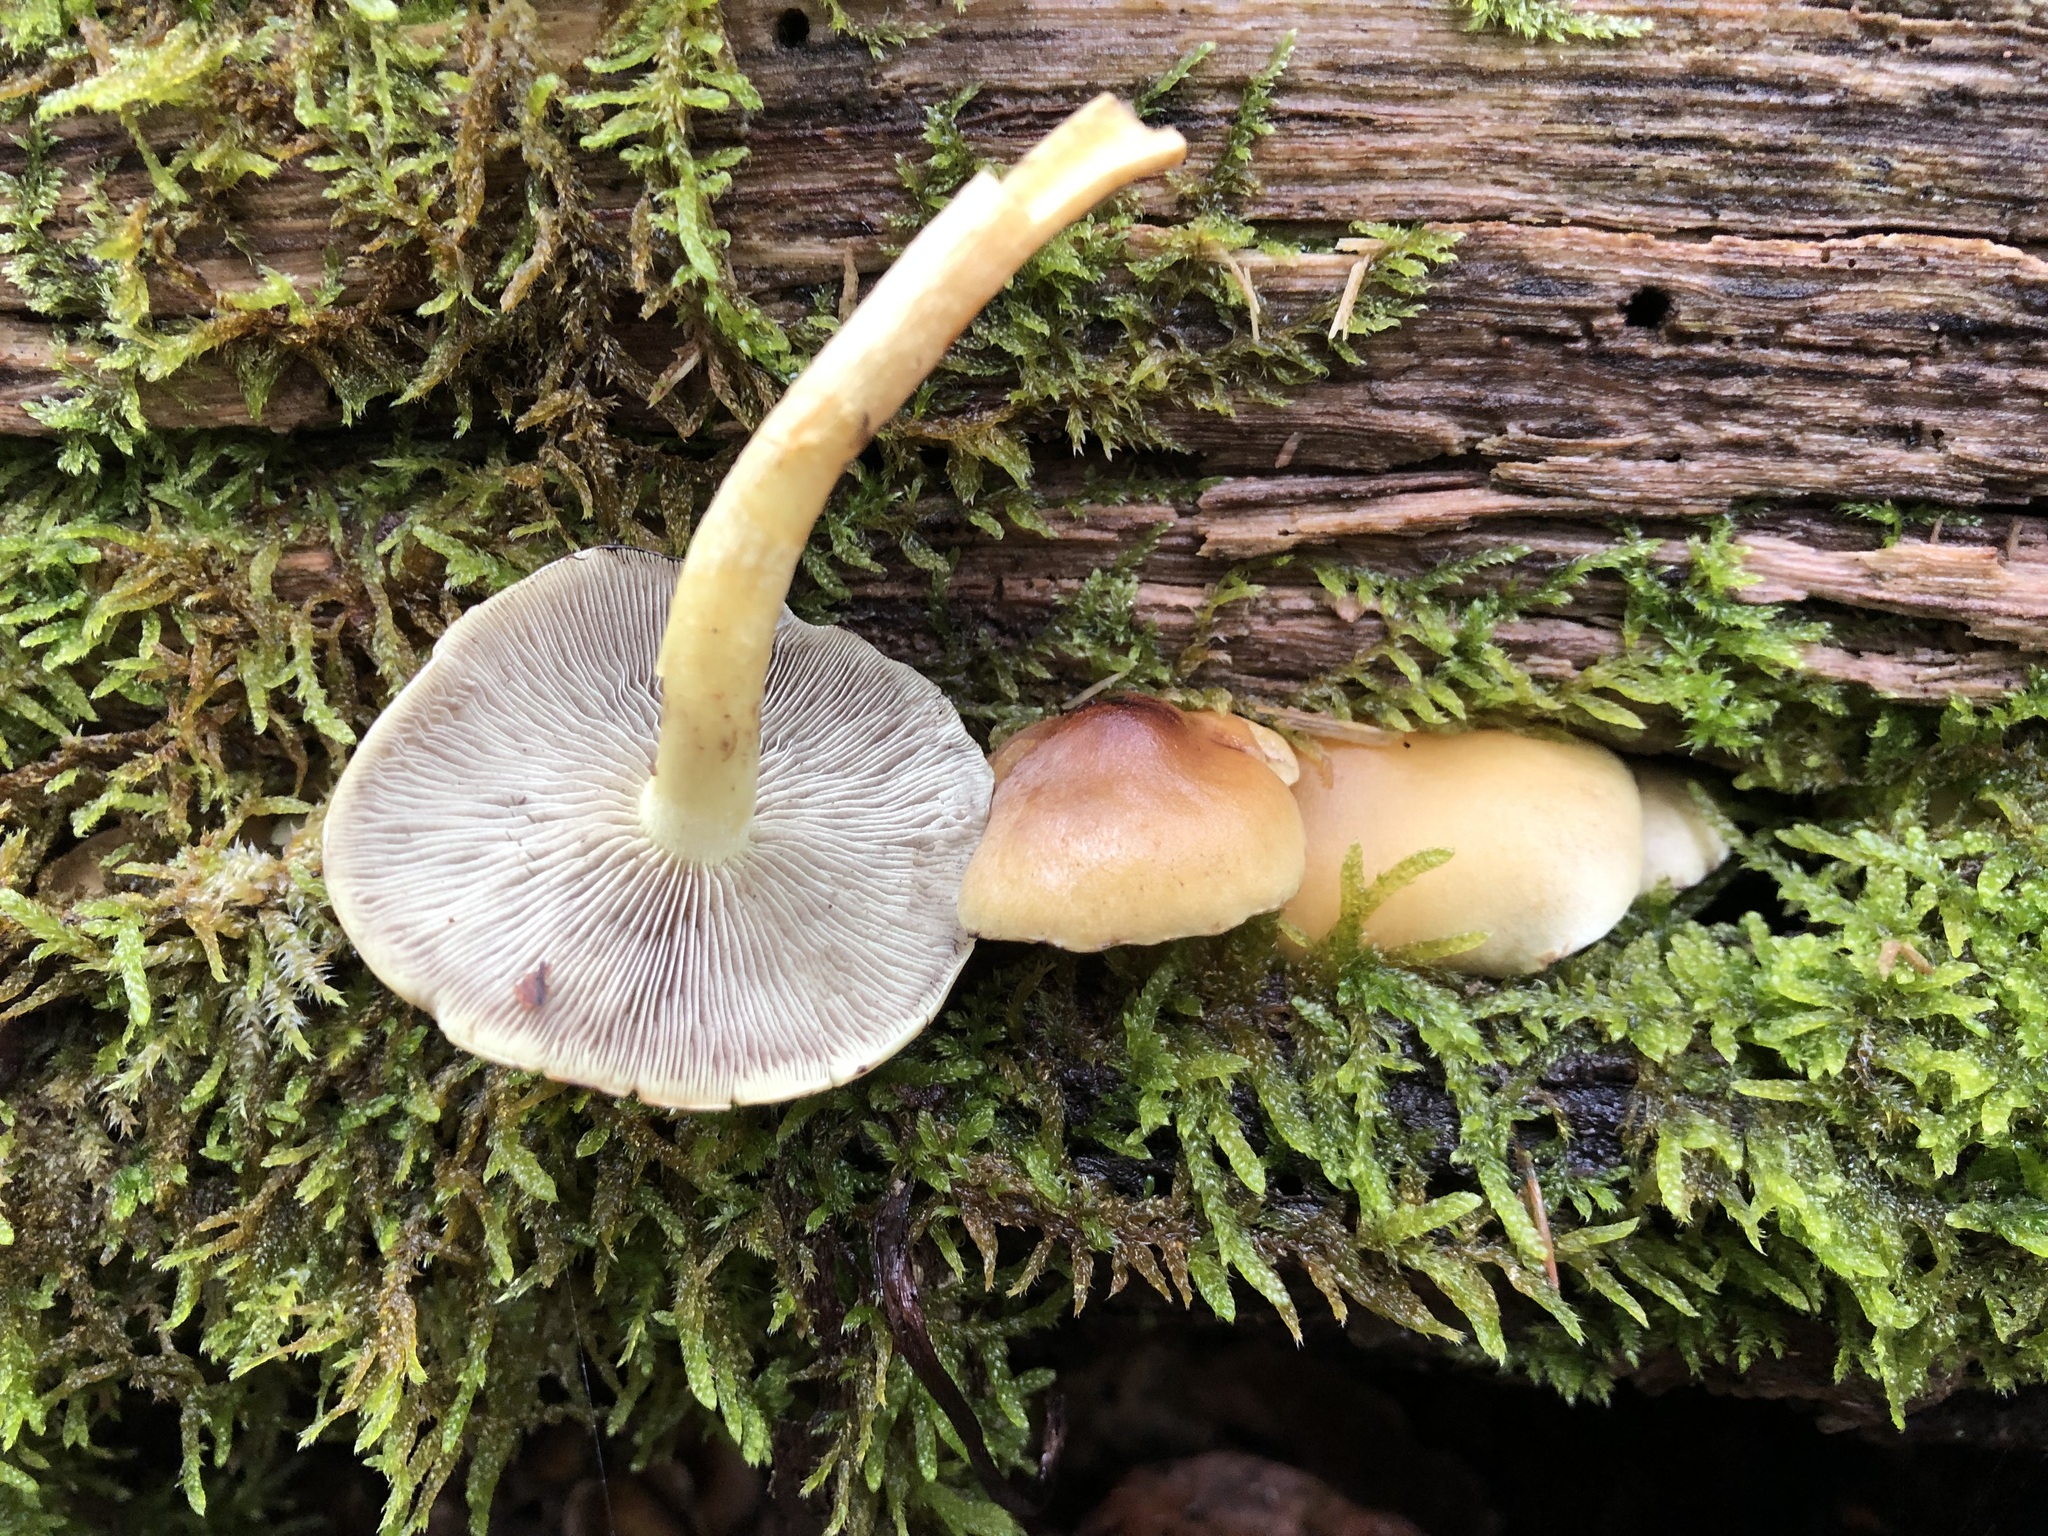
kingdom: Fungi
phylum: Basidiomycota
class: Agaricomycetes
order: Agaricales
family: Strophariaceae
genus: Hypholoma
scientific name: Hypholoma fasciculare
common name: Sulphur tuft
